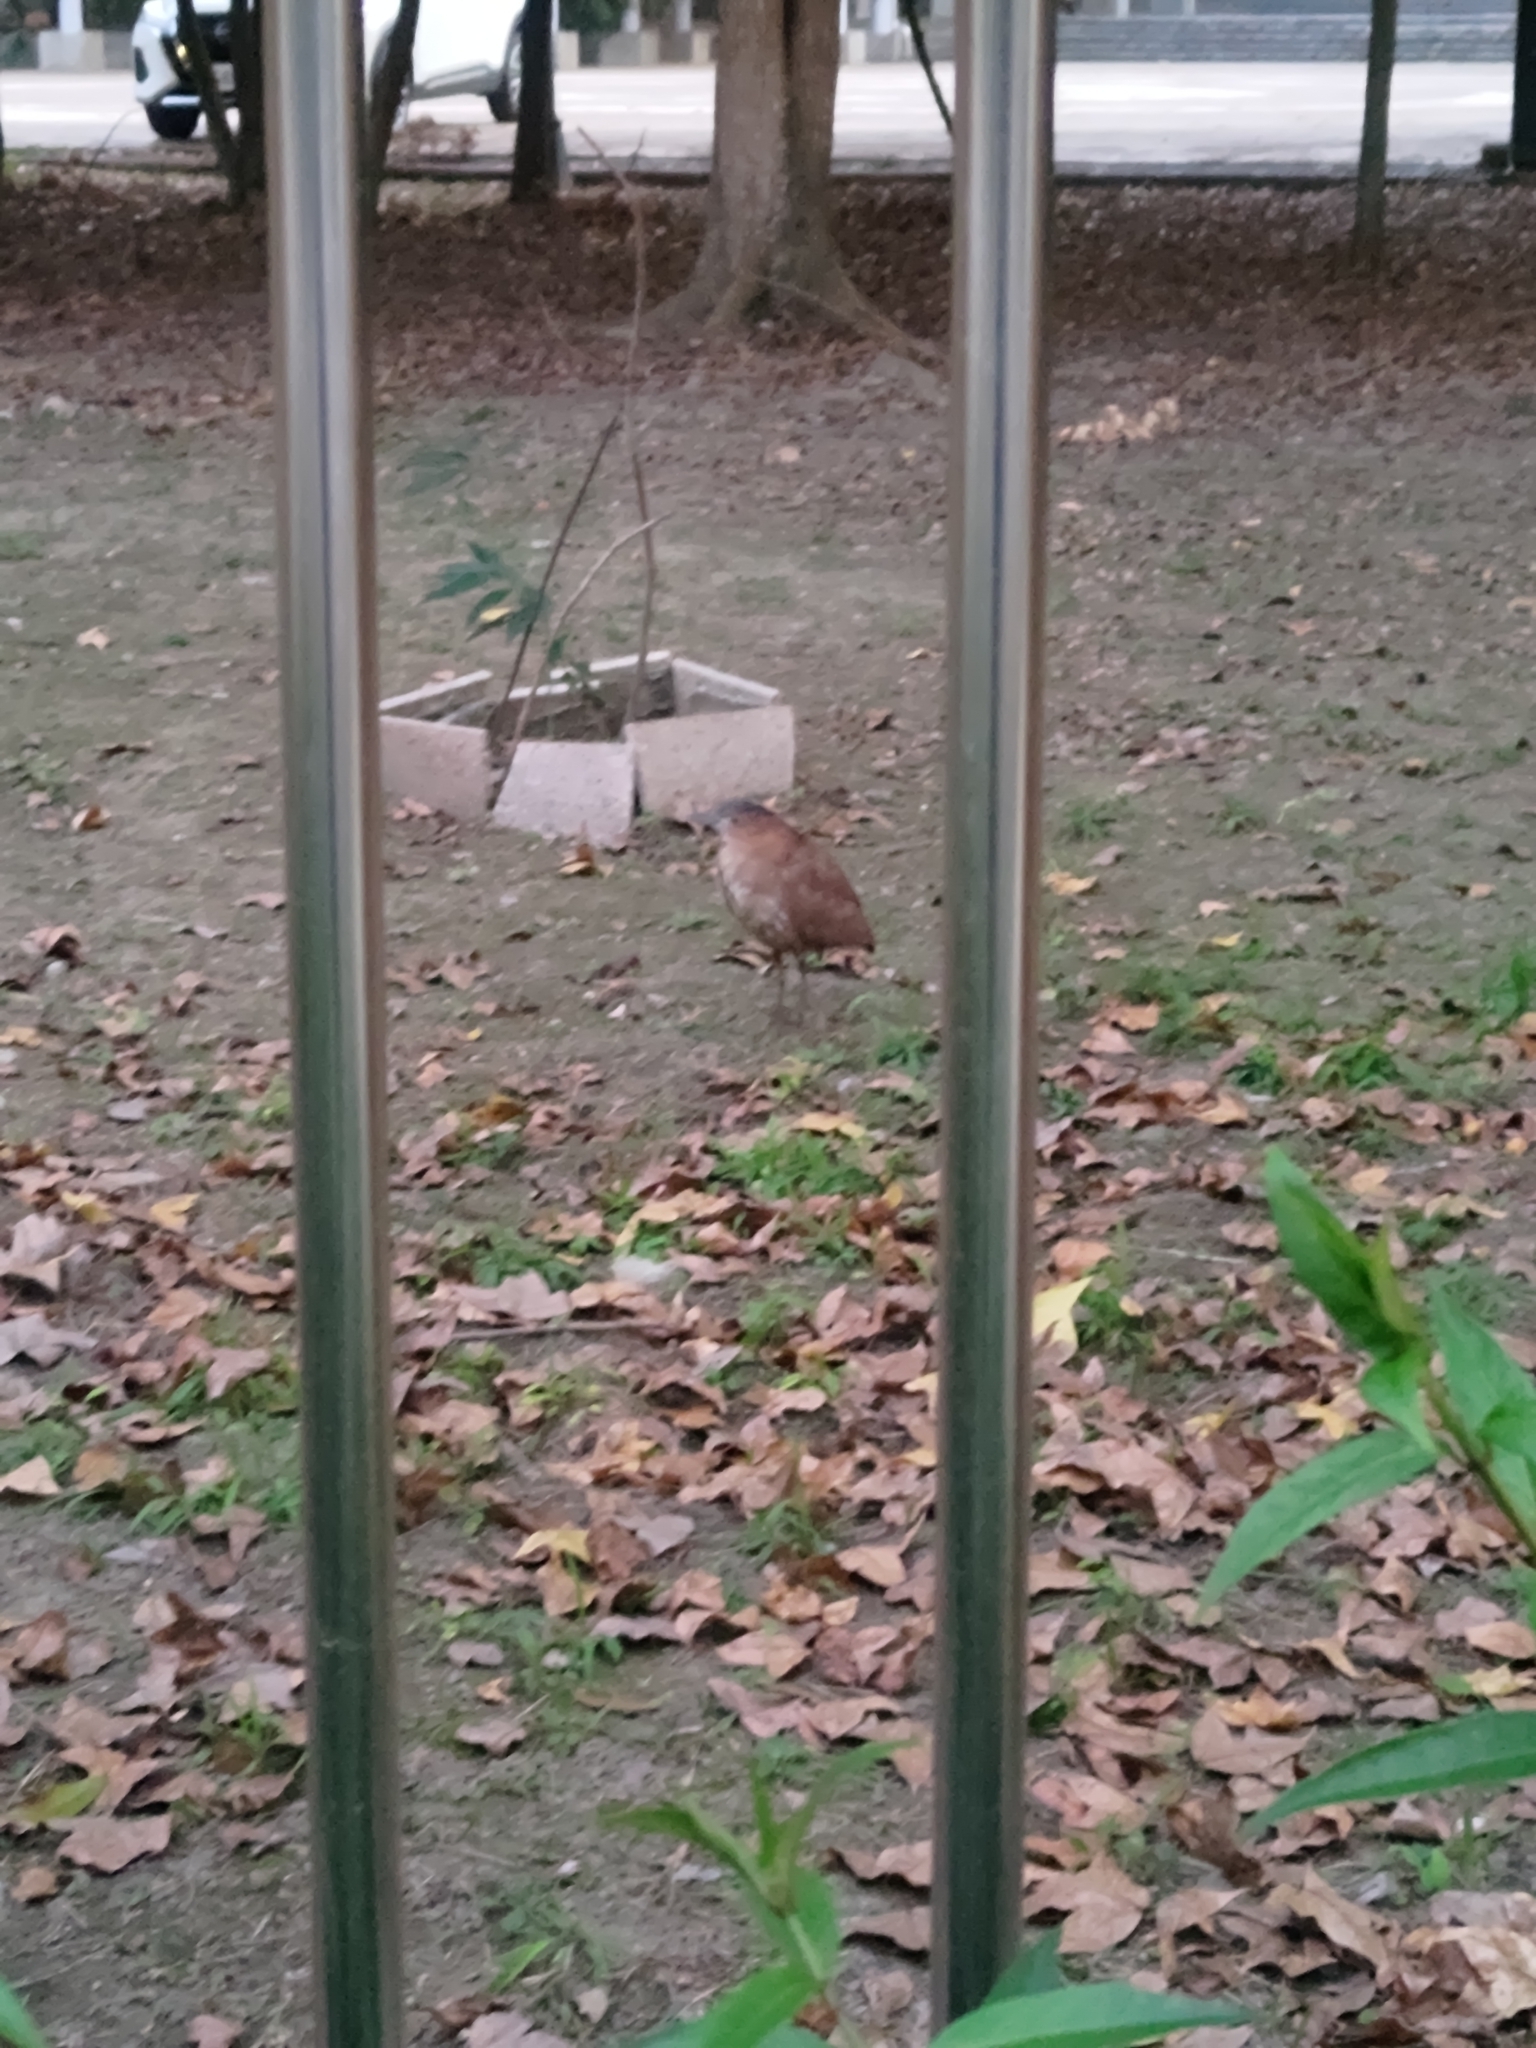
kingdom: Animalia
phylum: Chordata
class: Aves
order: Pelecaniformes
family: Ardeidae
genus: Gorsachius
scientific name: Gorsachius melanolophus
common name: Malayan night heron
